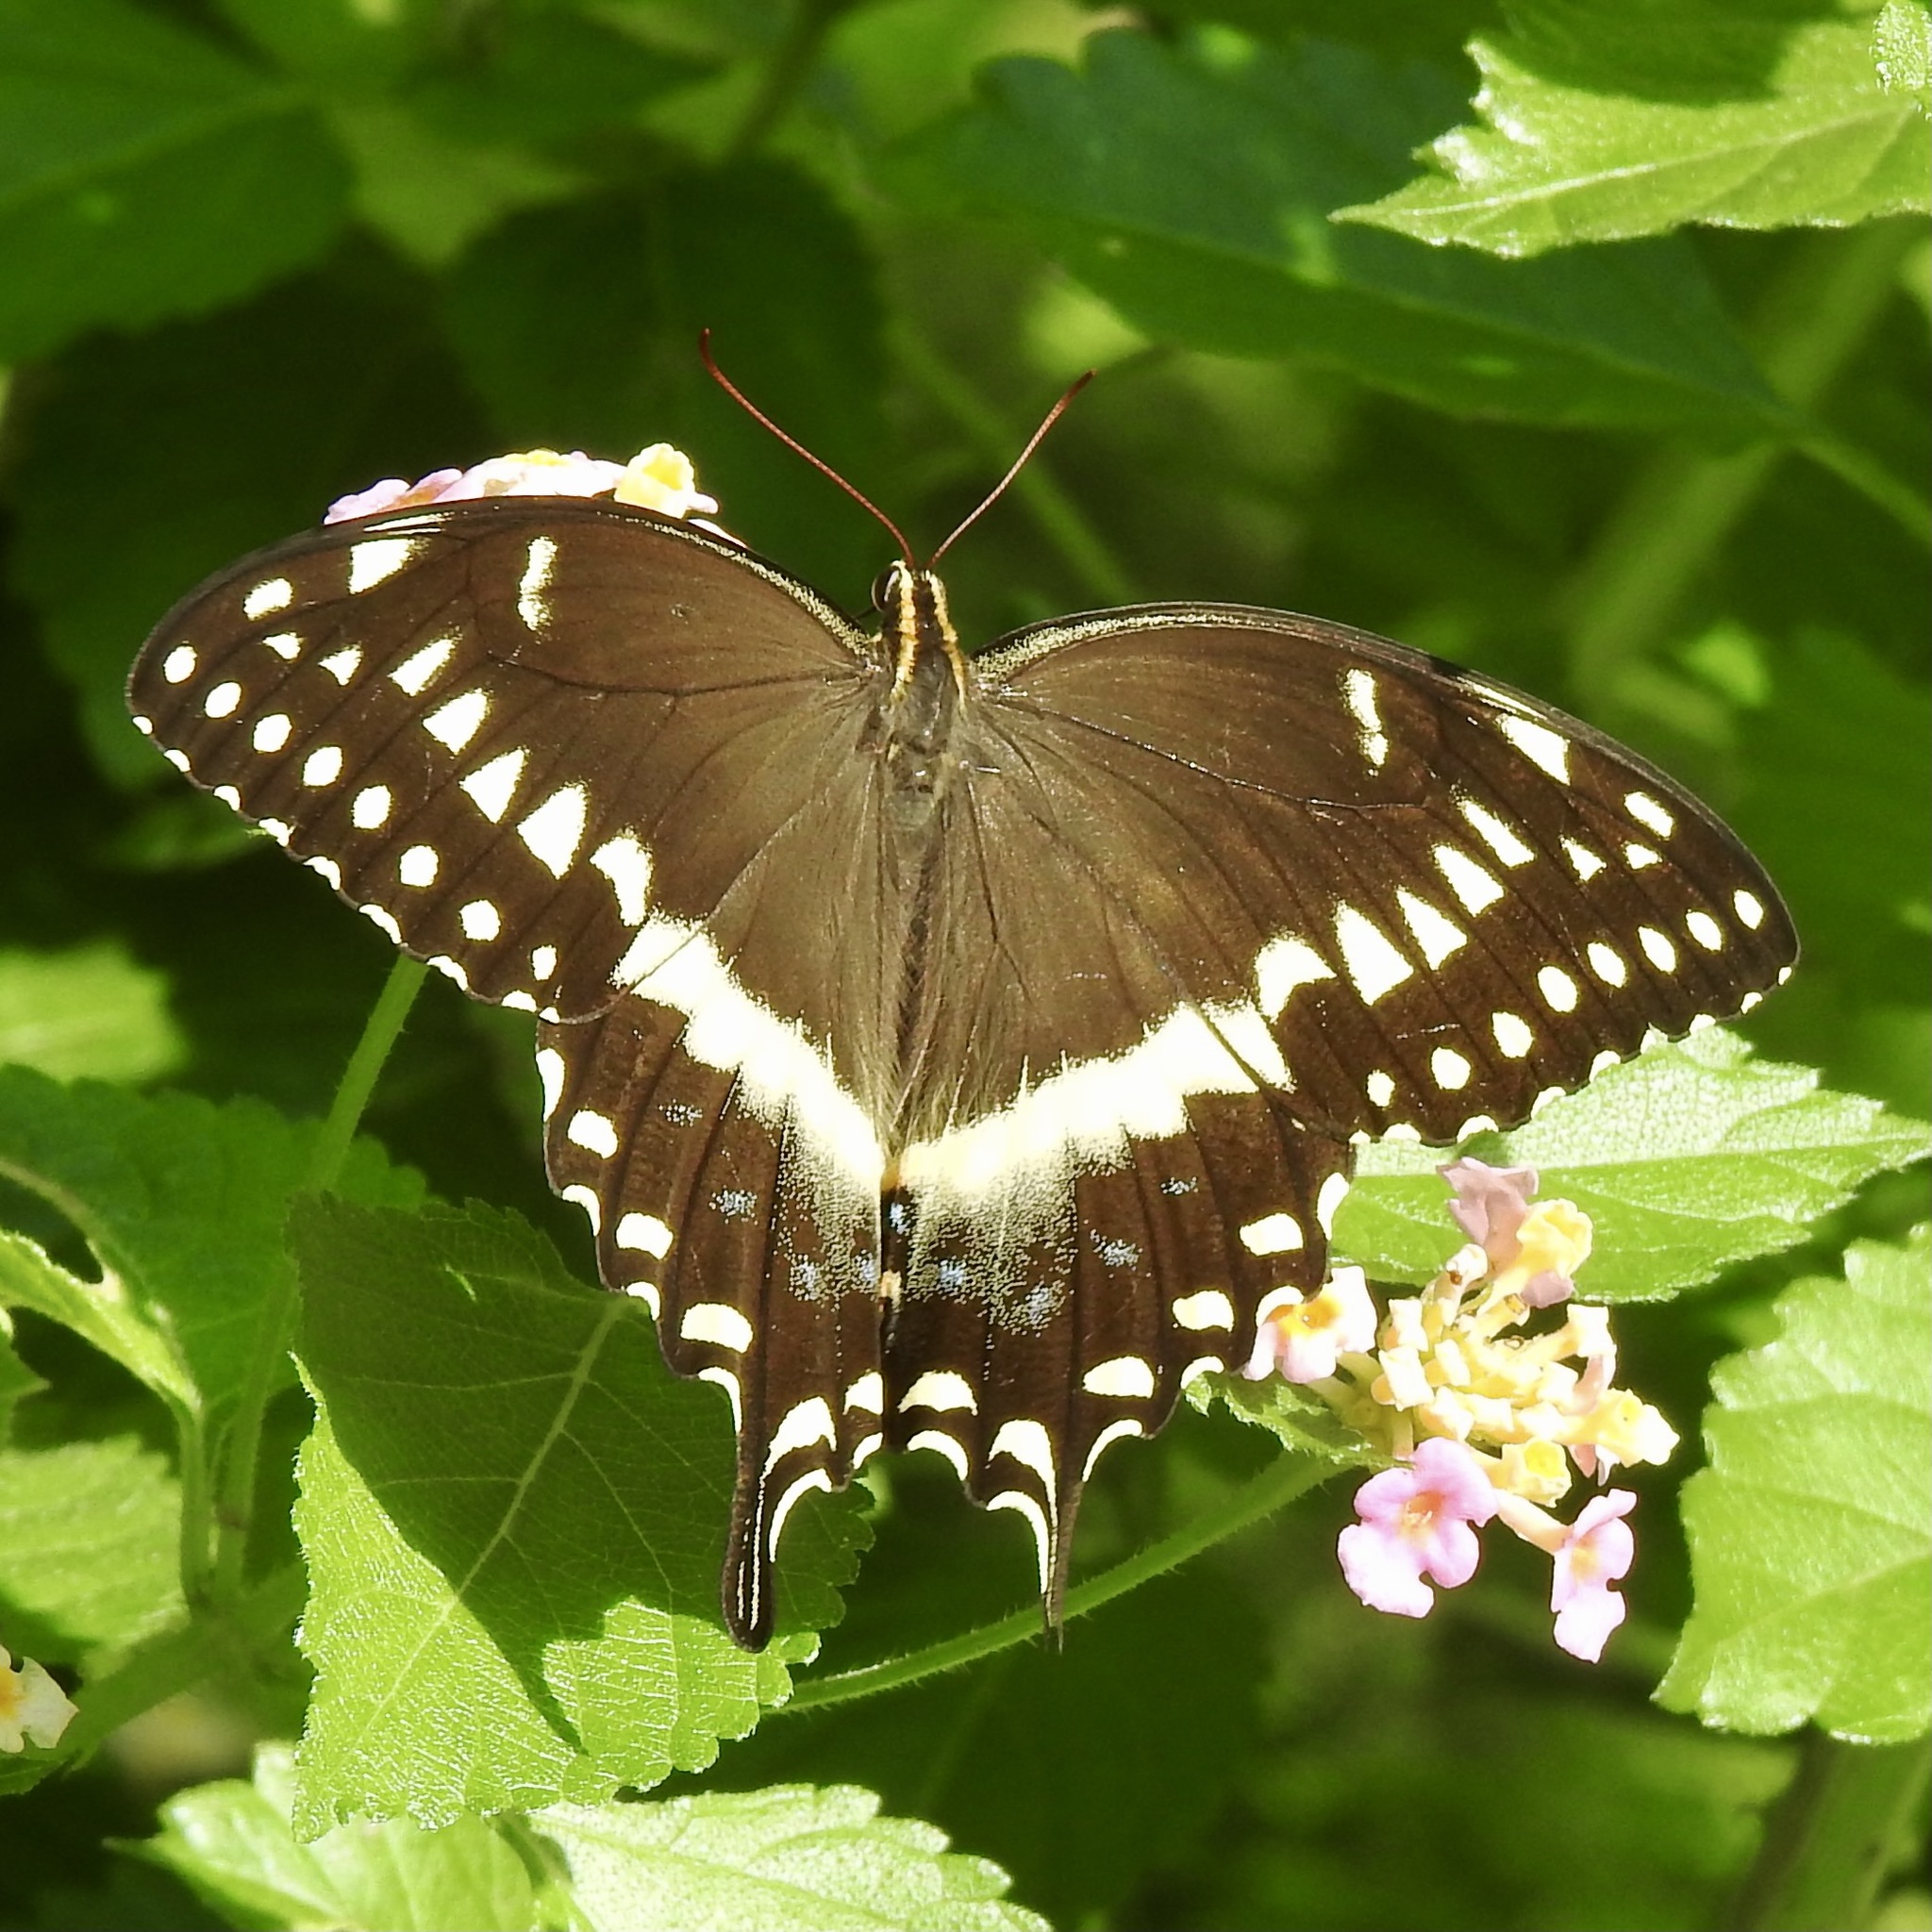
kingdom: Animalia
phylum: Arthropoda
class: Insecta
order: Lepidoptera
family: Papilionidae
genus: Papilio
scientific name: Papilio palamedes
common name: Palamedes swallowtail
